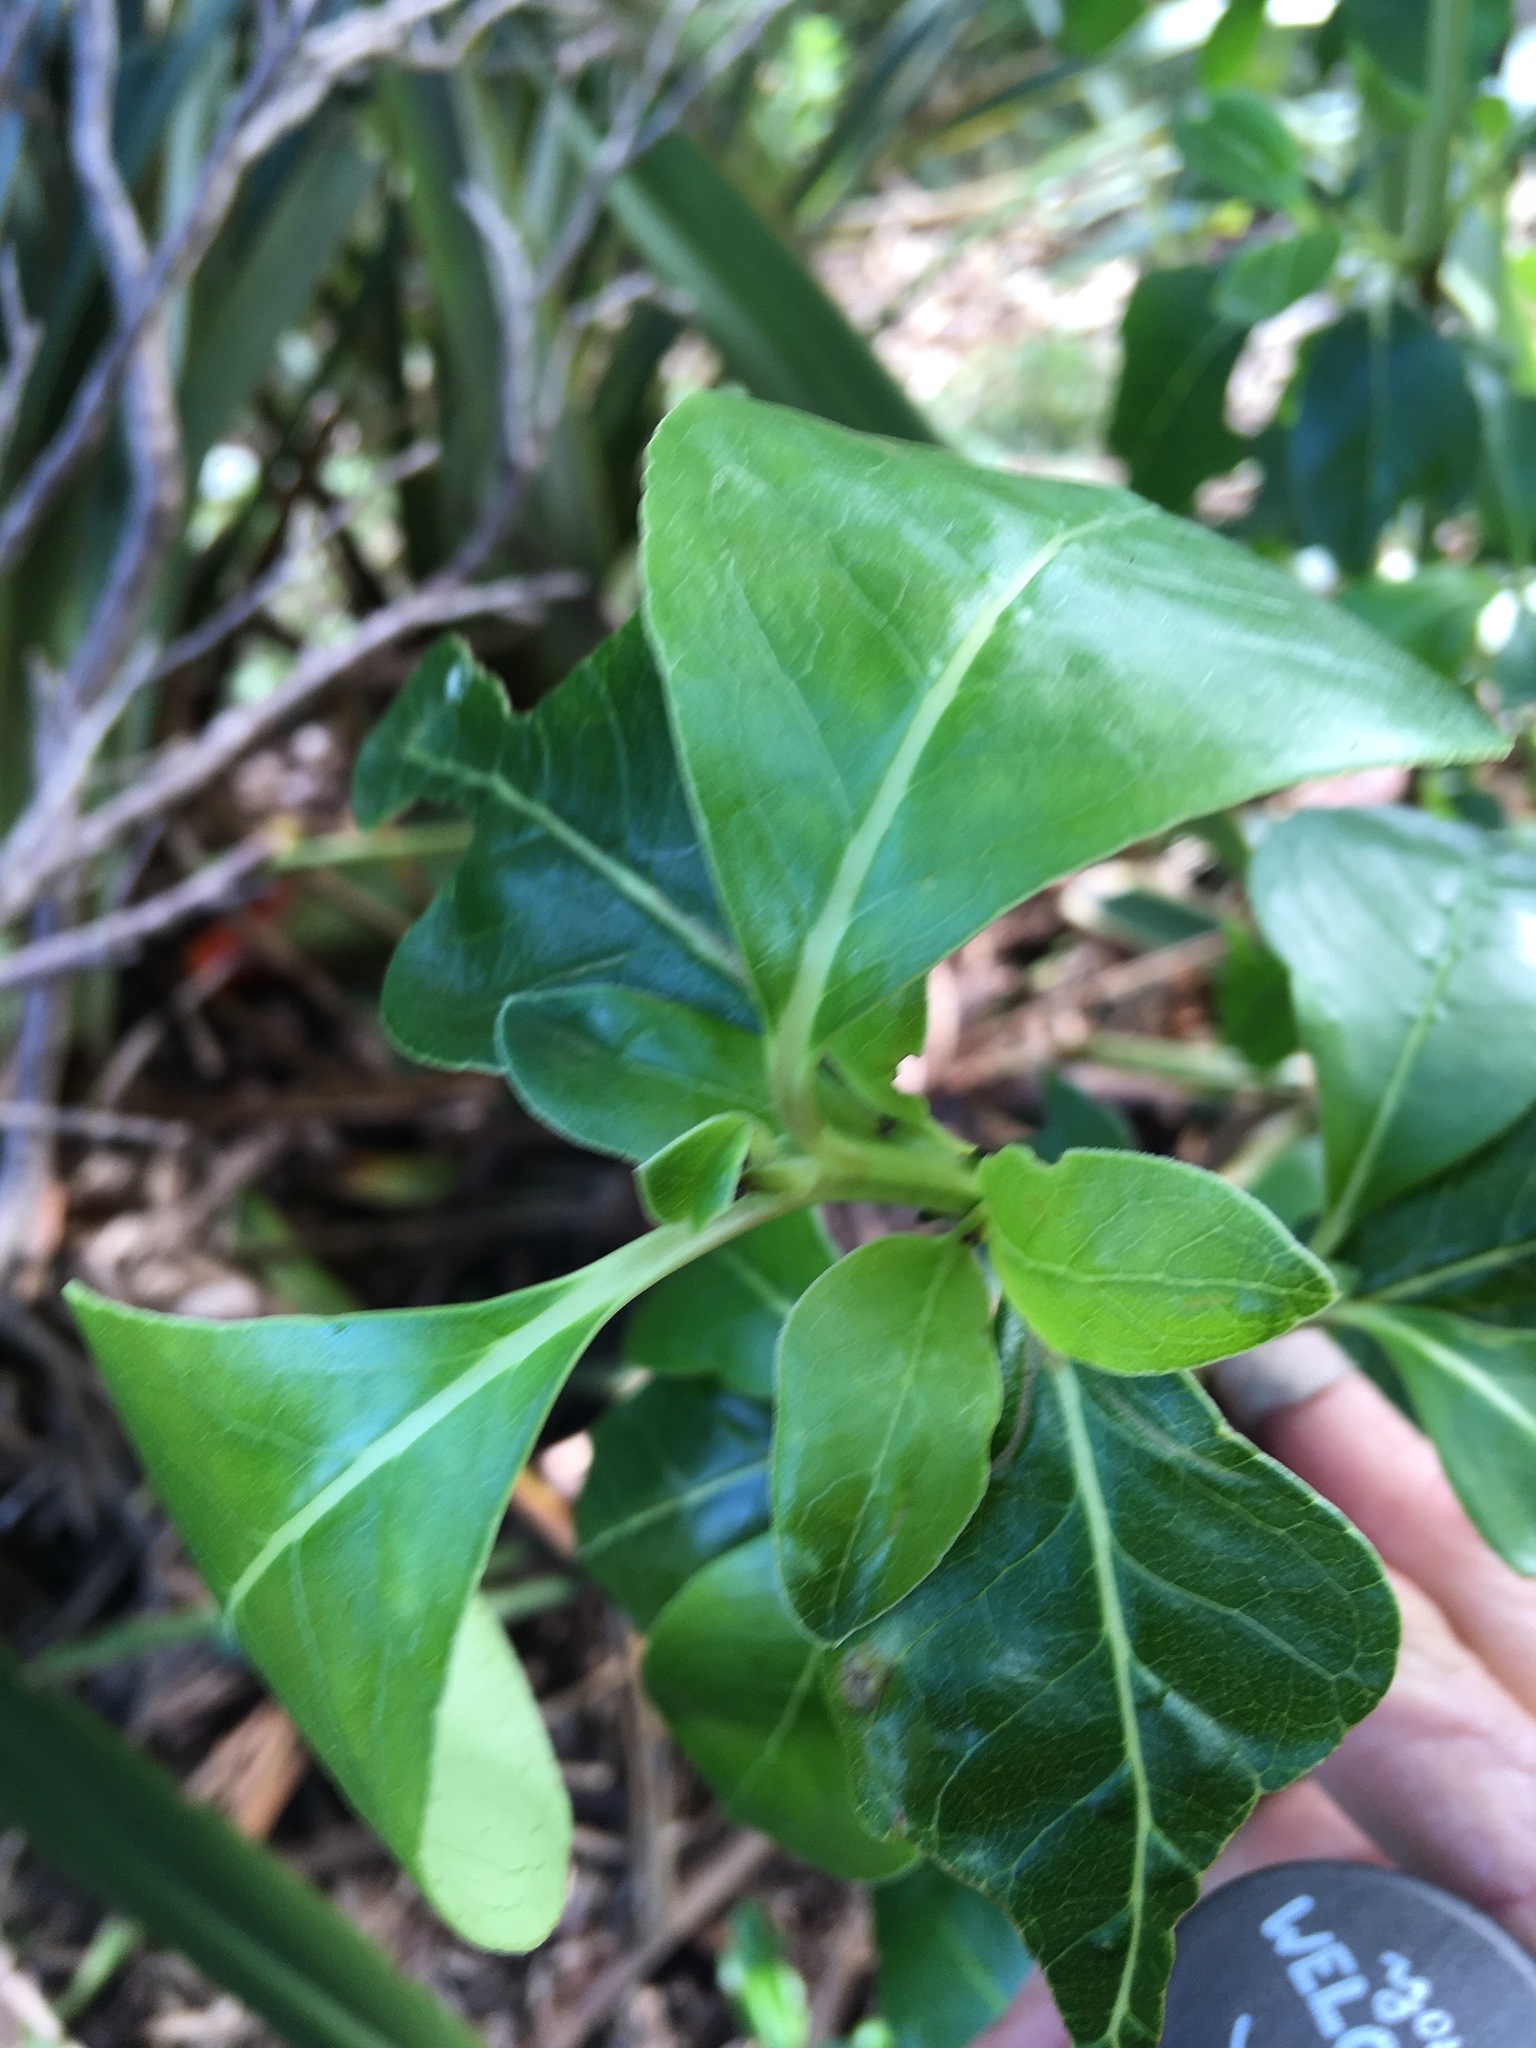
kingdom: Plantae
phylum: Tracheophyta
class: Magnoliopsida
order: Gentianales
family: Rubiaceae
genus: Coprosma
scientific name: Coprosma robusta
